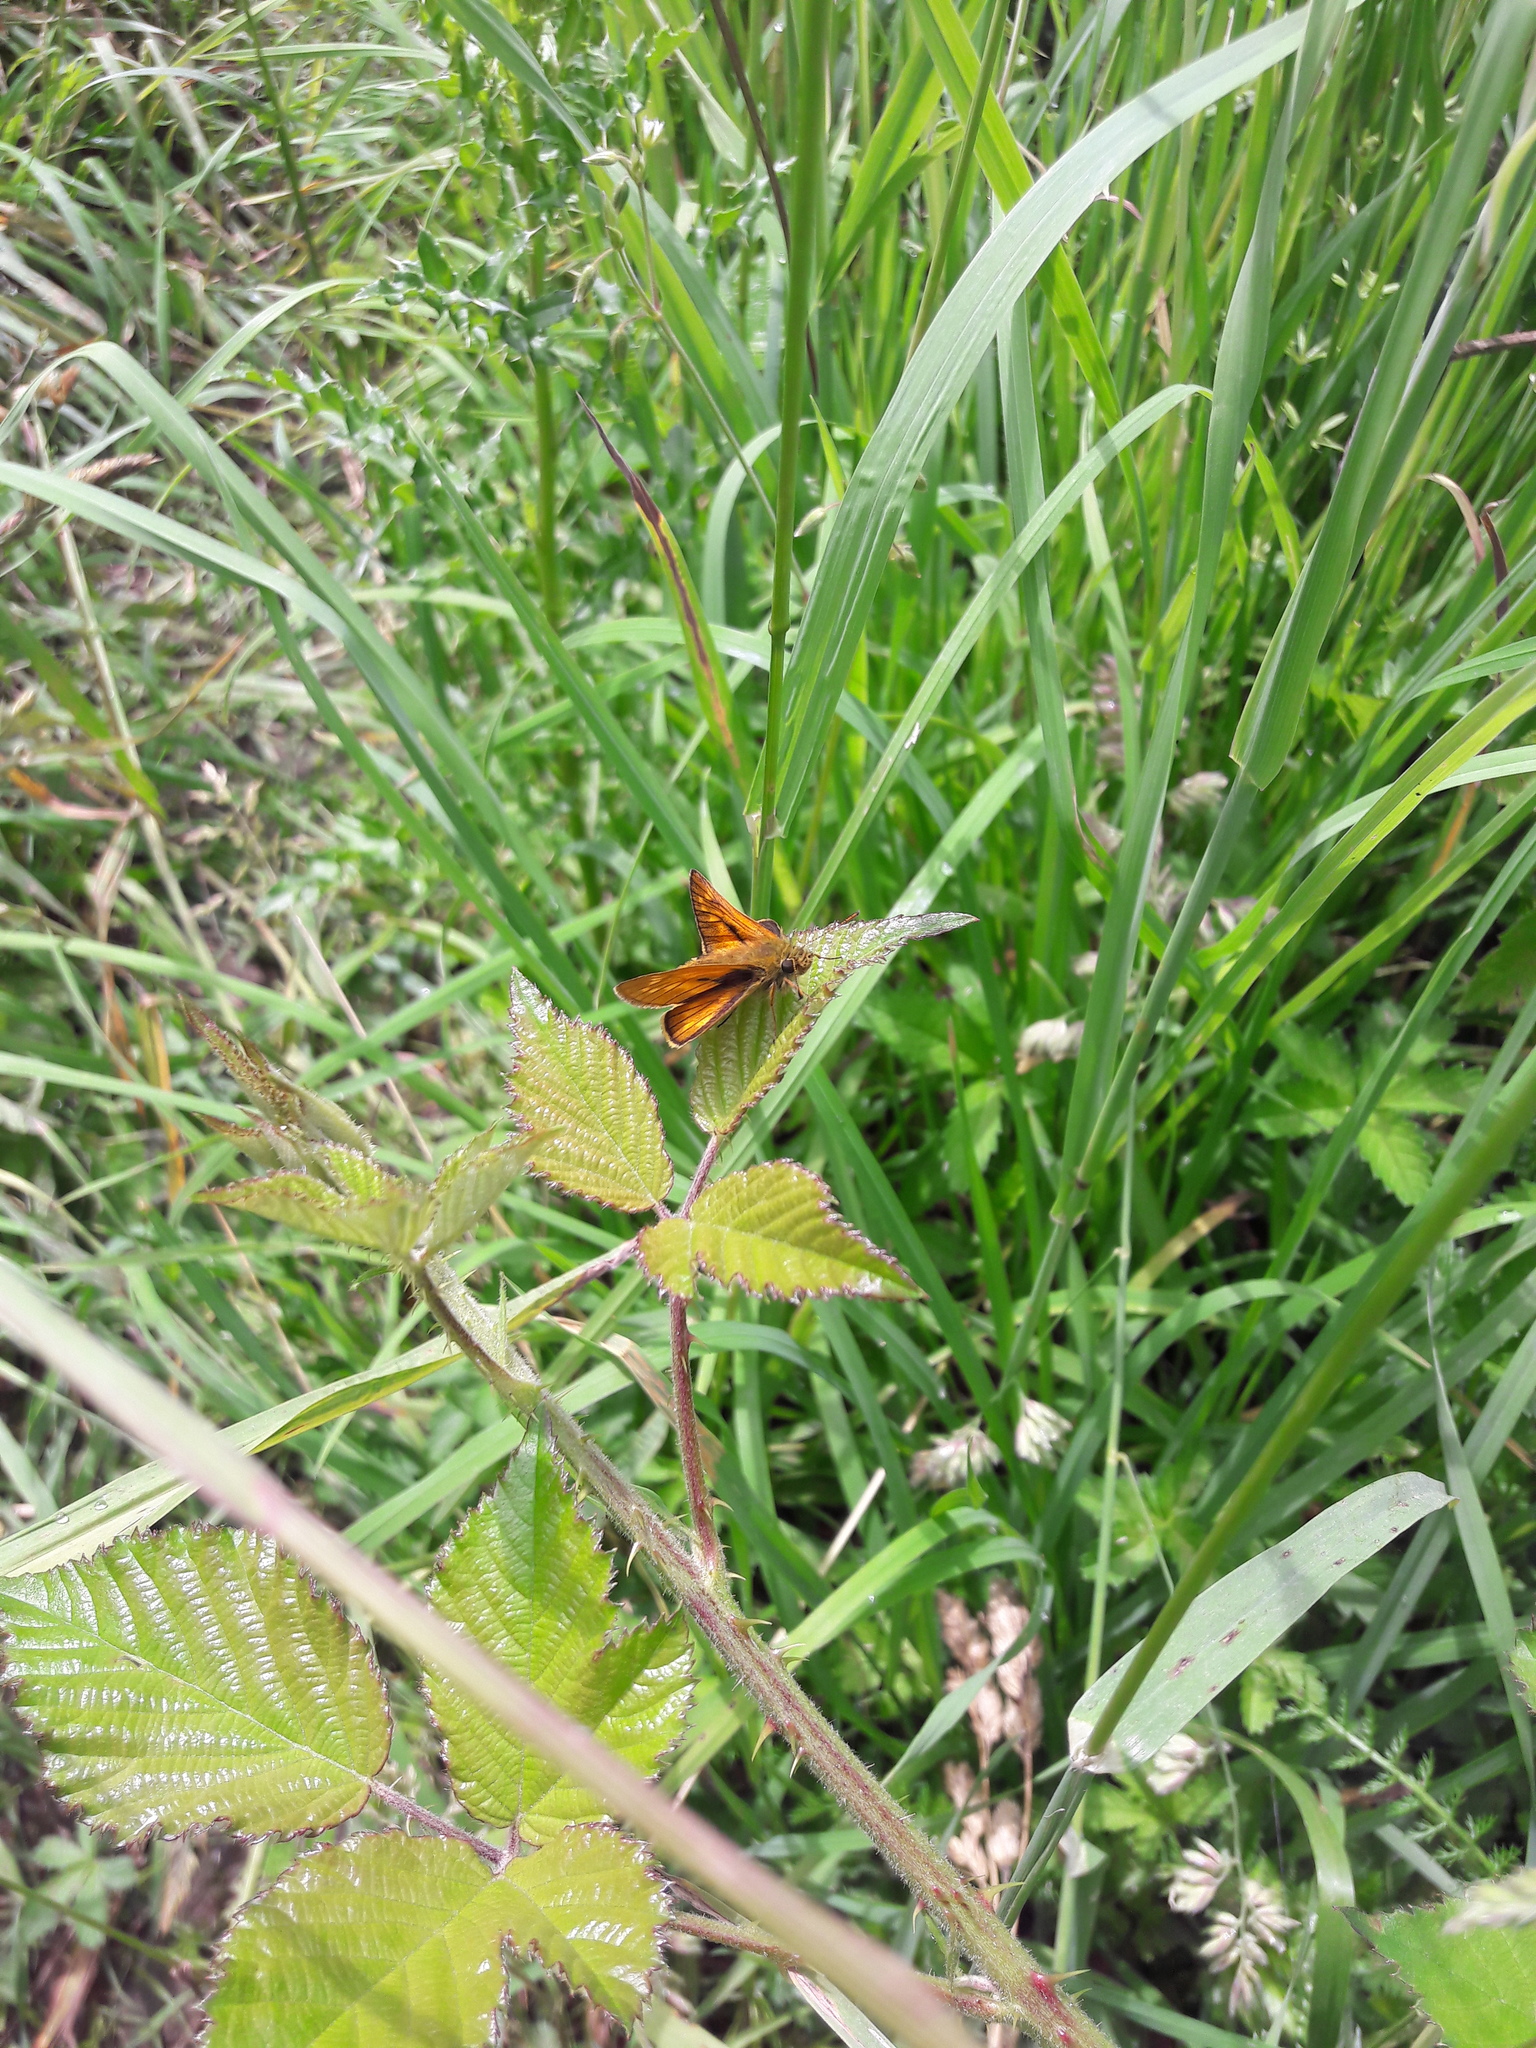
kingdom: Animalia
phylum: Arthropoda
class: Insecta
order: Lepidoptera
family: Hesperiidae
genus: Ochlodes
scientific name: Ochlodes venata
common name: Large skipper
